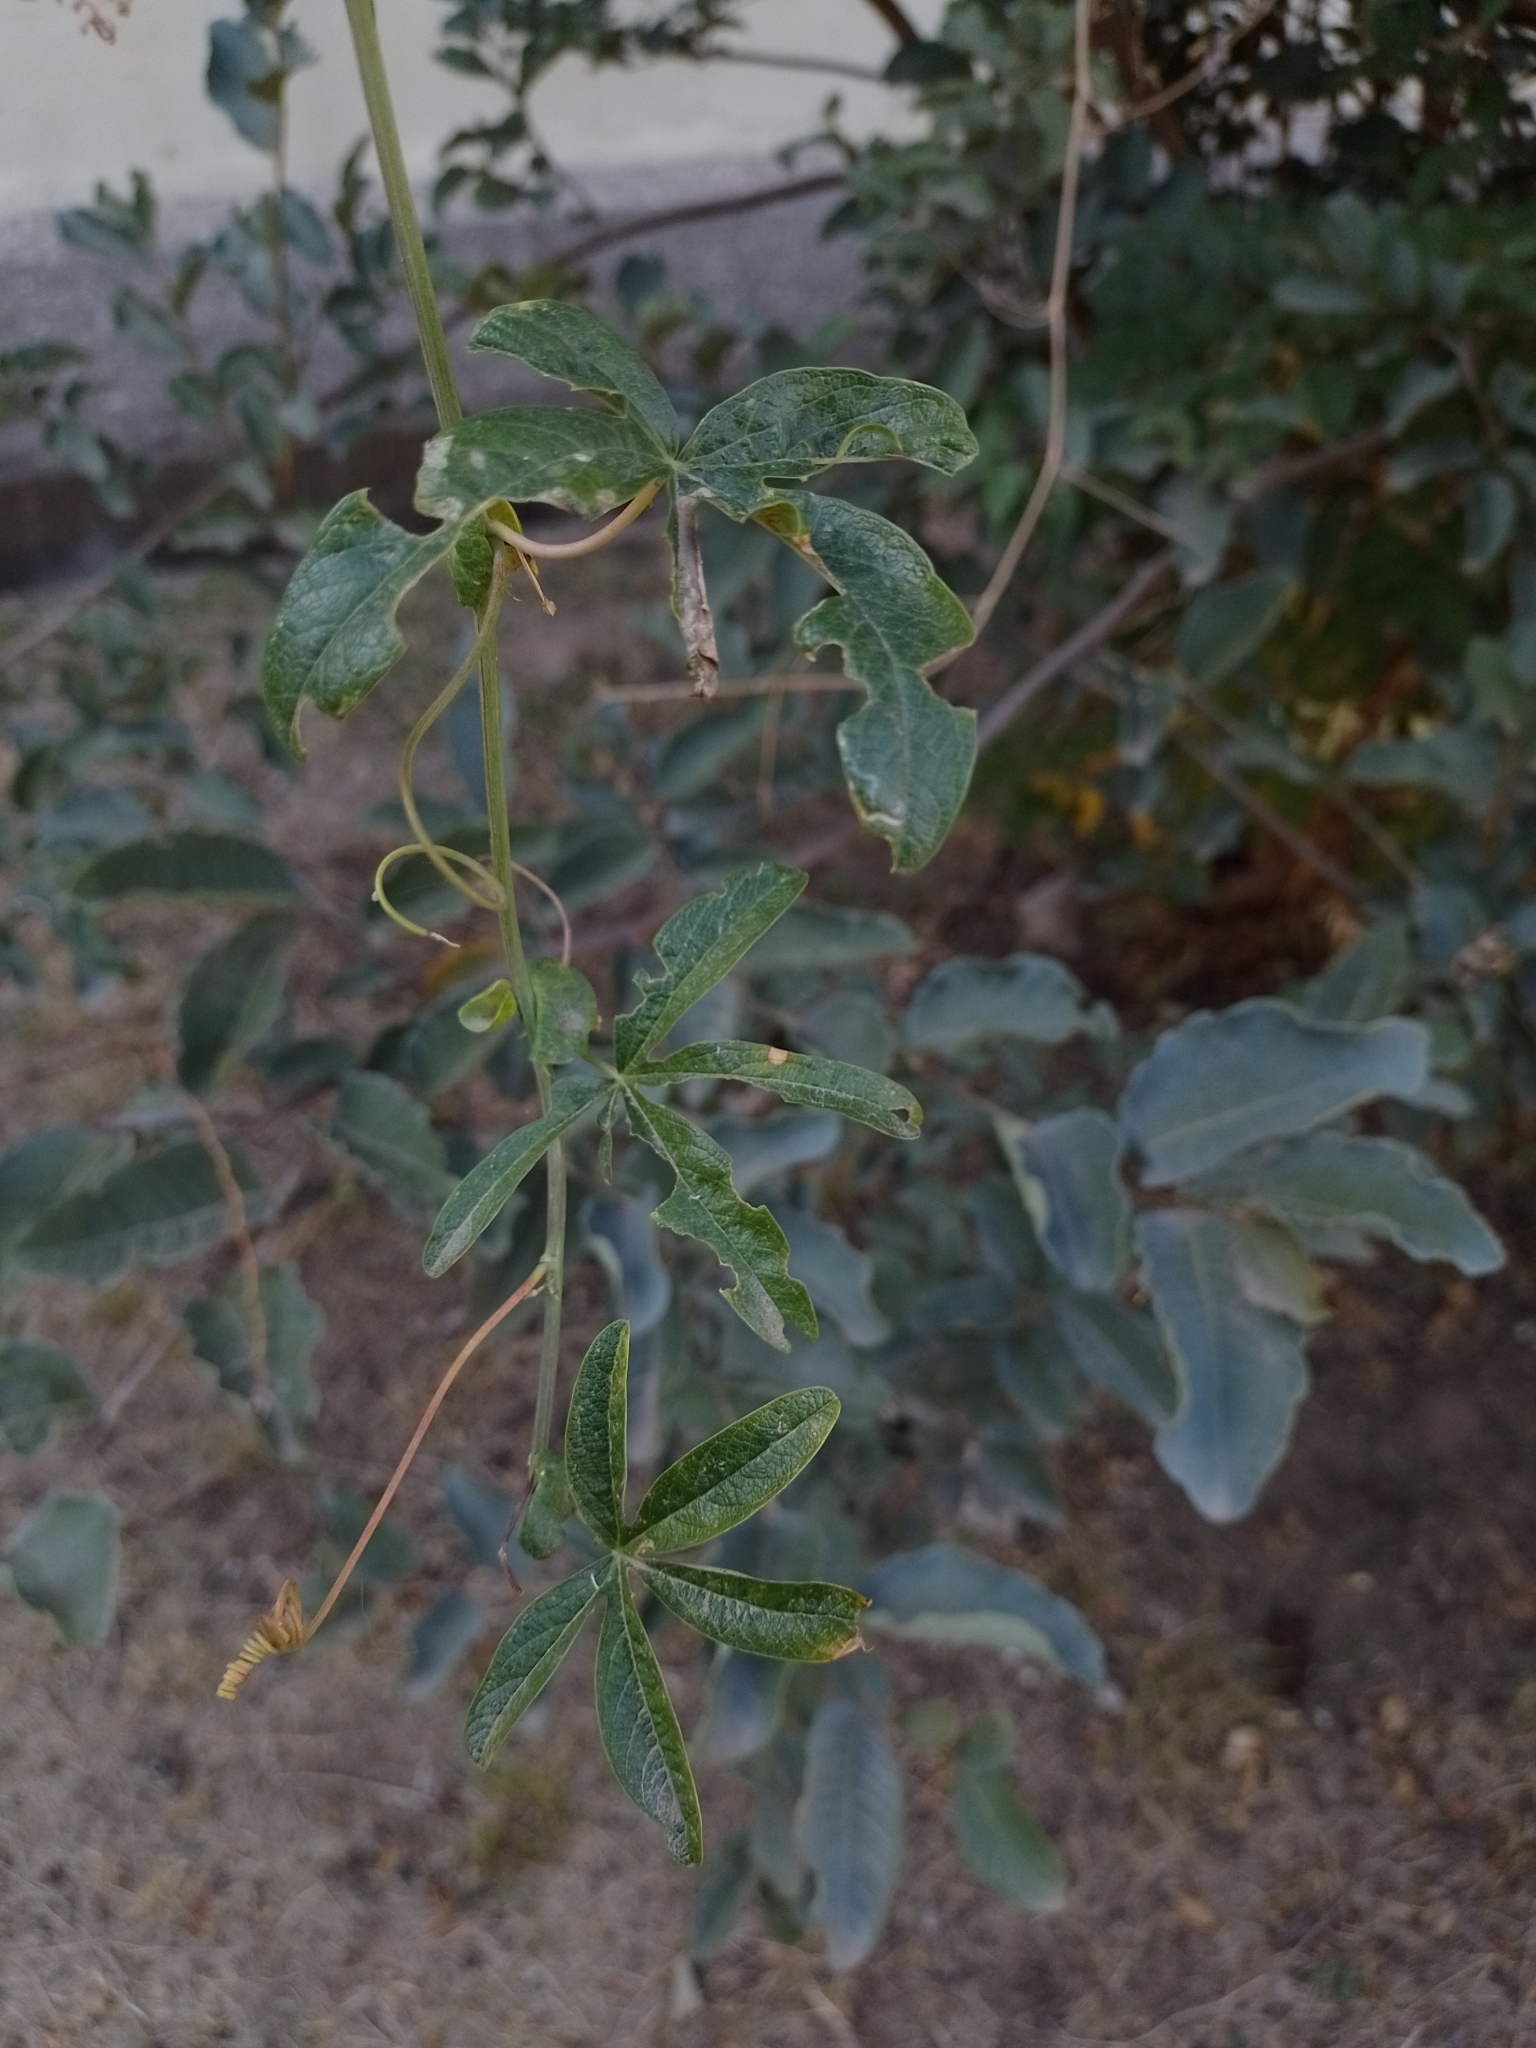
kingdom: Plantae
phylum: Tracheophyta
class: Magnoliopsida
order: Malpighiales
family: Passifloraceae
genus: Passiflora
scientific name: Passiflora caerulea
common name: Blue passionflower
